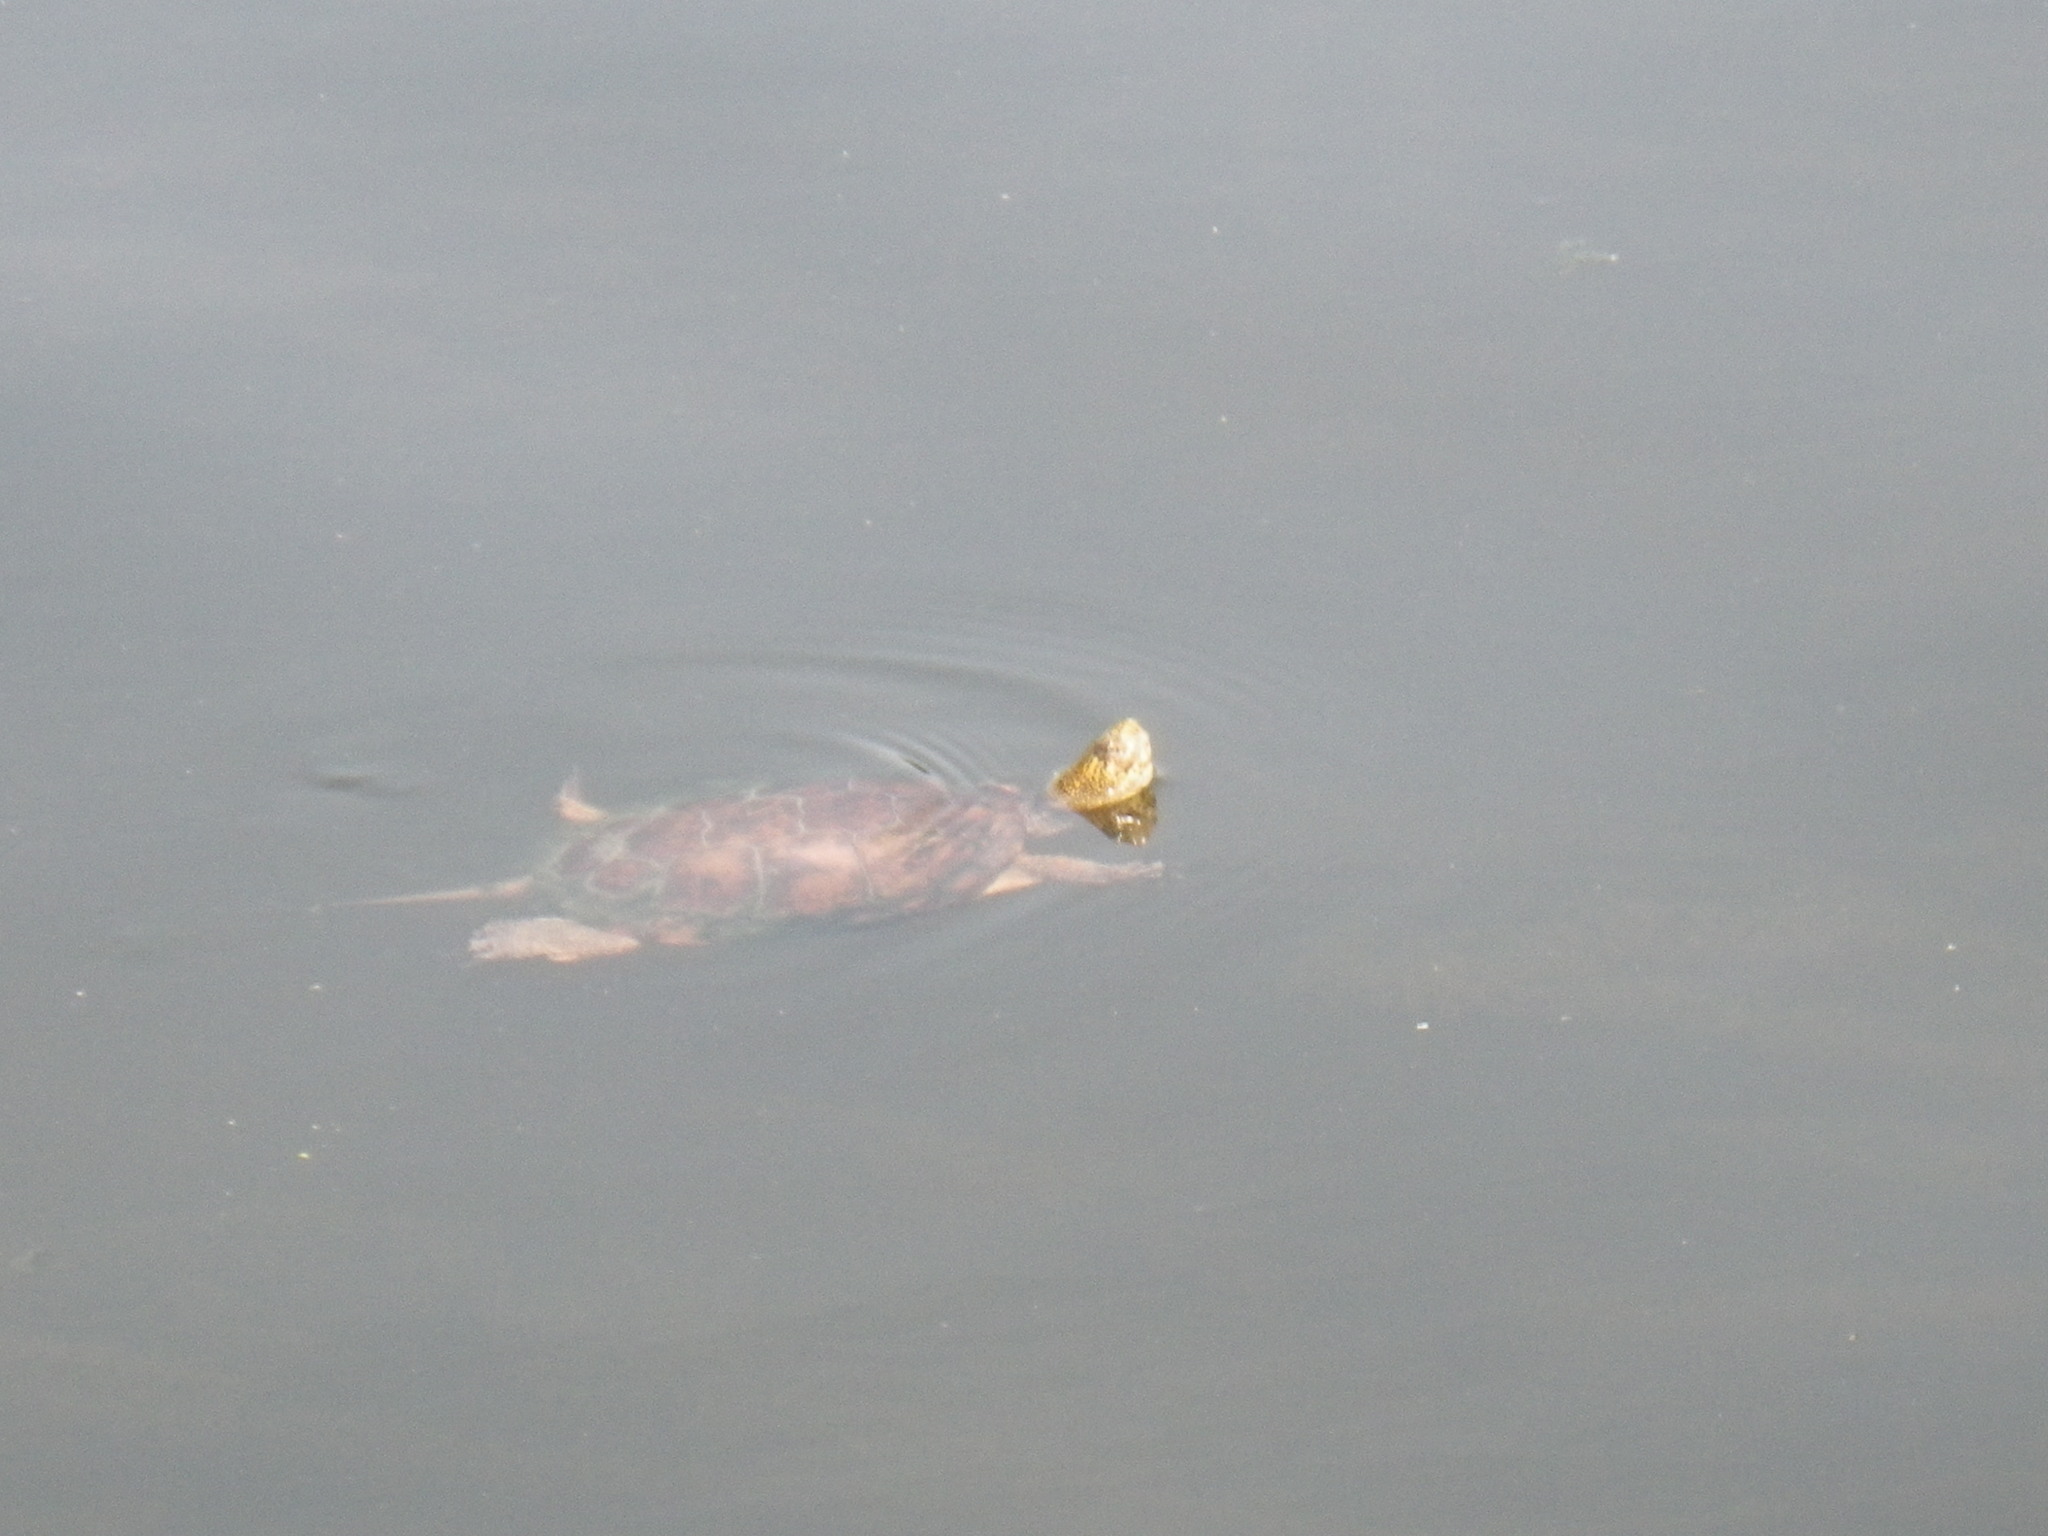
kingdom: Animalia
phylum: Chordata
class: Testudines
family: Emydidae
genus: Actinemys
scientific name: Actinemys marmorata
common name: Western pond turtle
